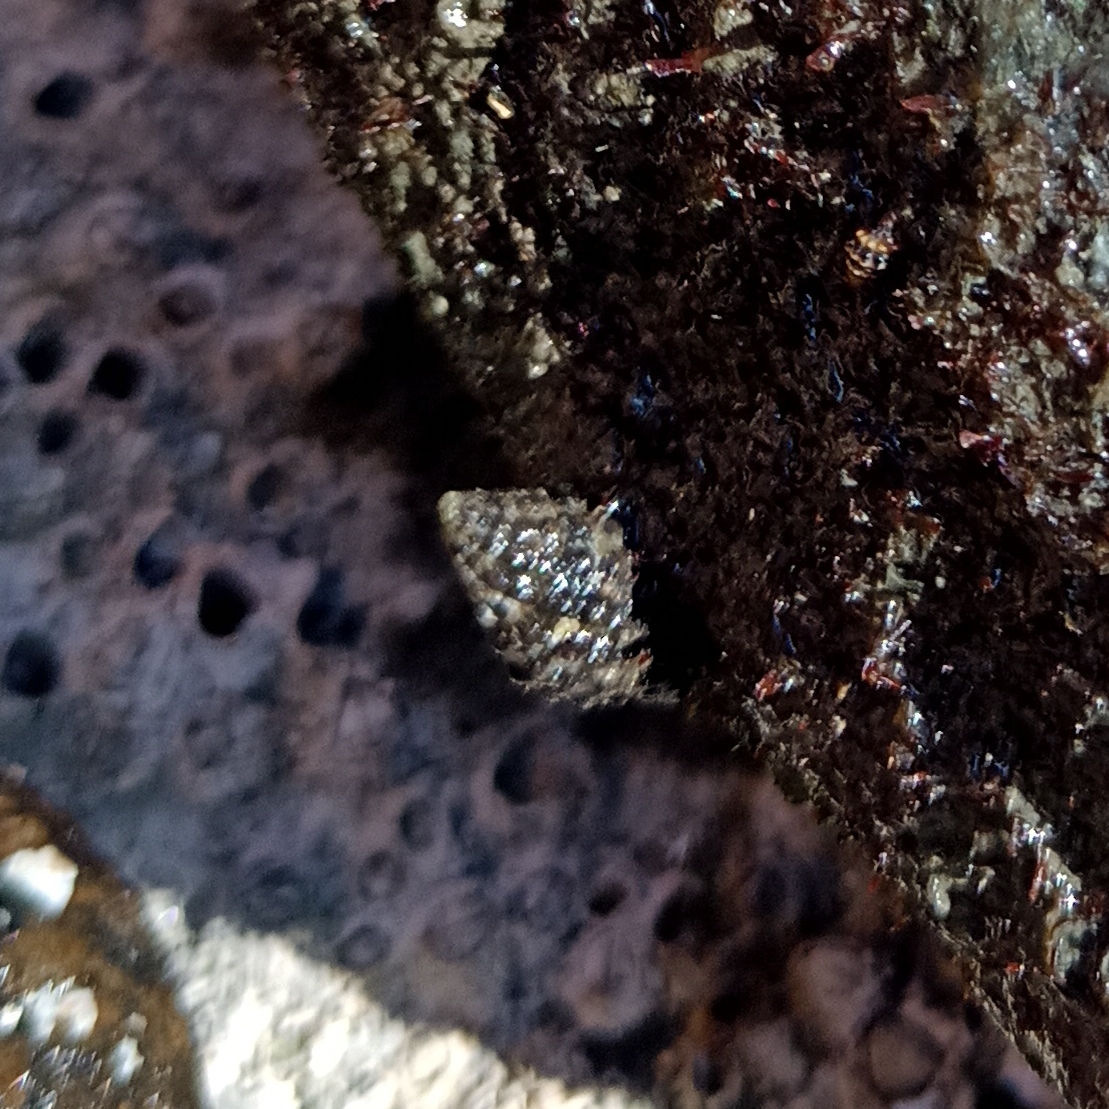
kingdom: Animalia
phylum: Mollusca
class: Gastropoda
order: Neogastropoda
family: Muricidae
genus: Claremontiella
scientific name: Claremontiella nodulosa
